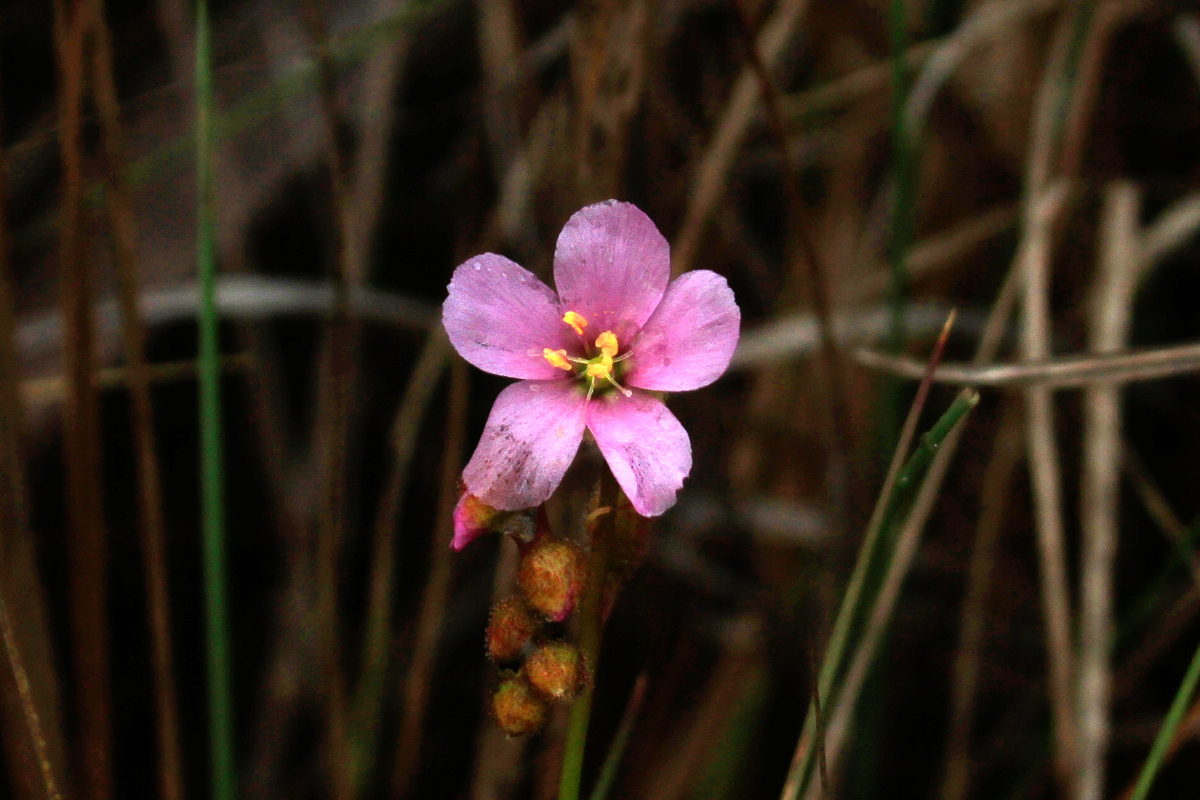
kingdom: Plantae
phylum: Tracheophyta
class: Magnoliopsida
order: Caryophyllales
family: Droseraceae
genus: Drosera
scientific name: Drosera filiformis
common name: Dew-thread
